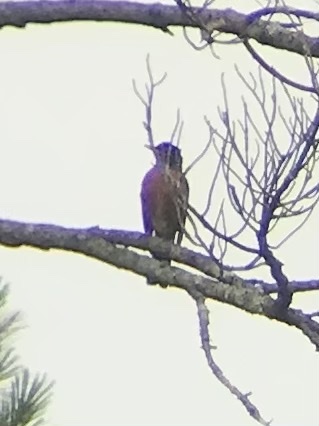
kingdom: Animalia
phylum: Chordata
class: Aves
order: Passeriformes
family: Turdidae
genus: Turdus
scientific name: Turdus migratorius
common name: American robin
